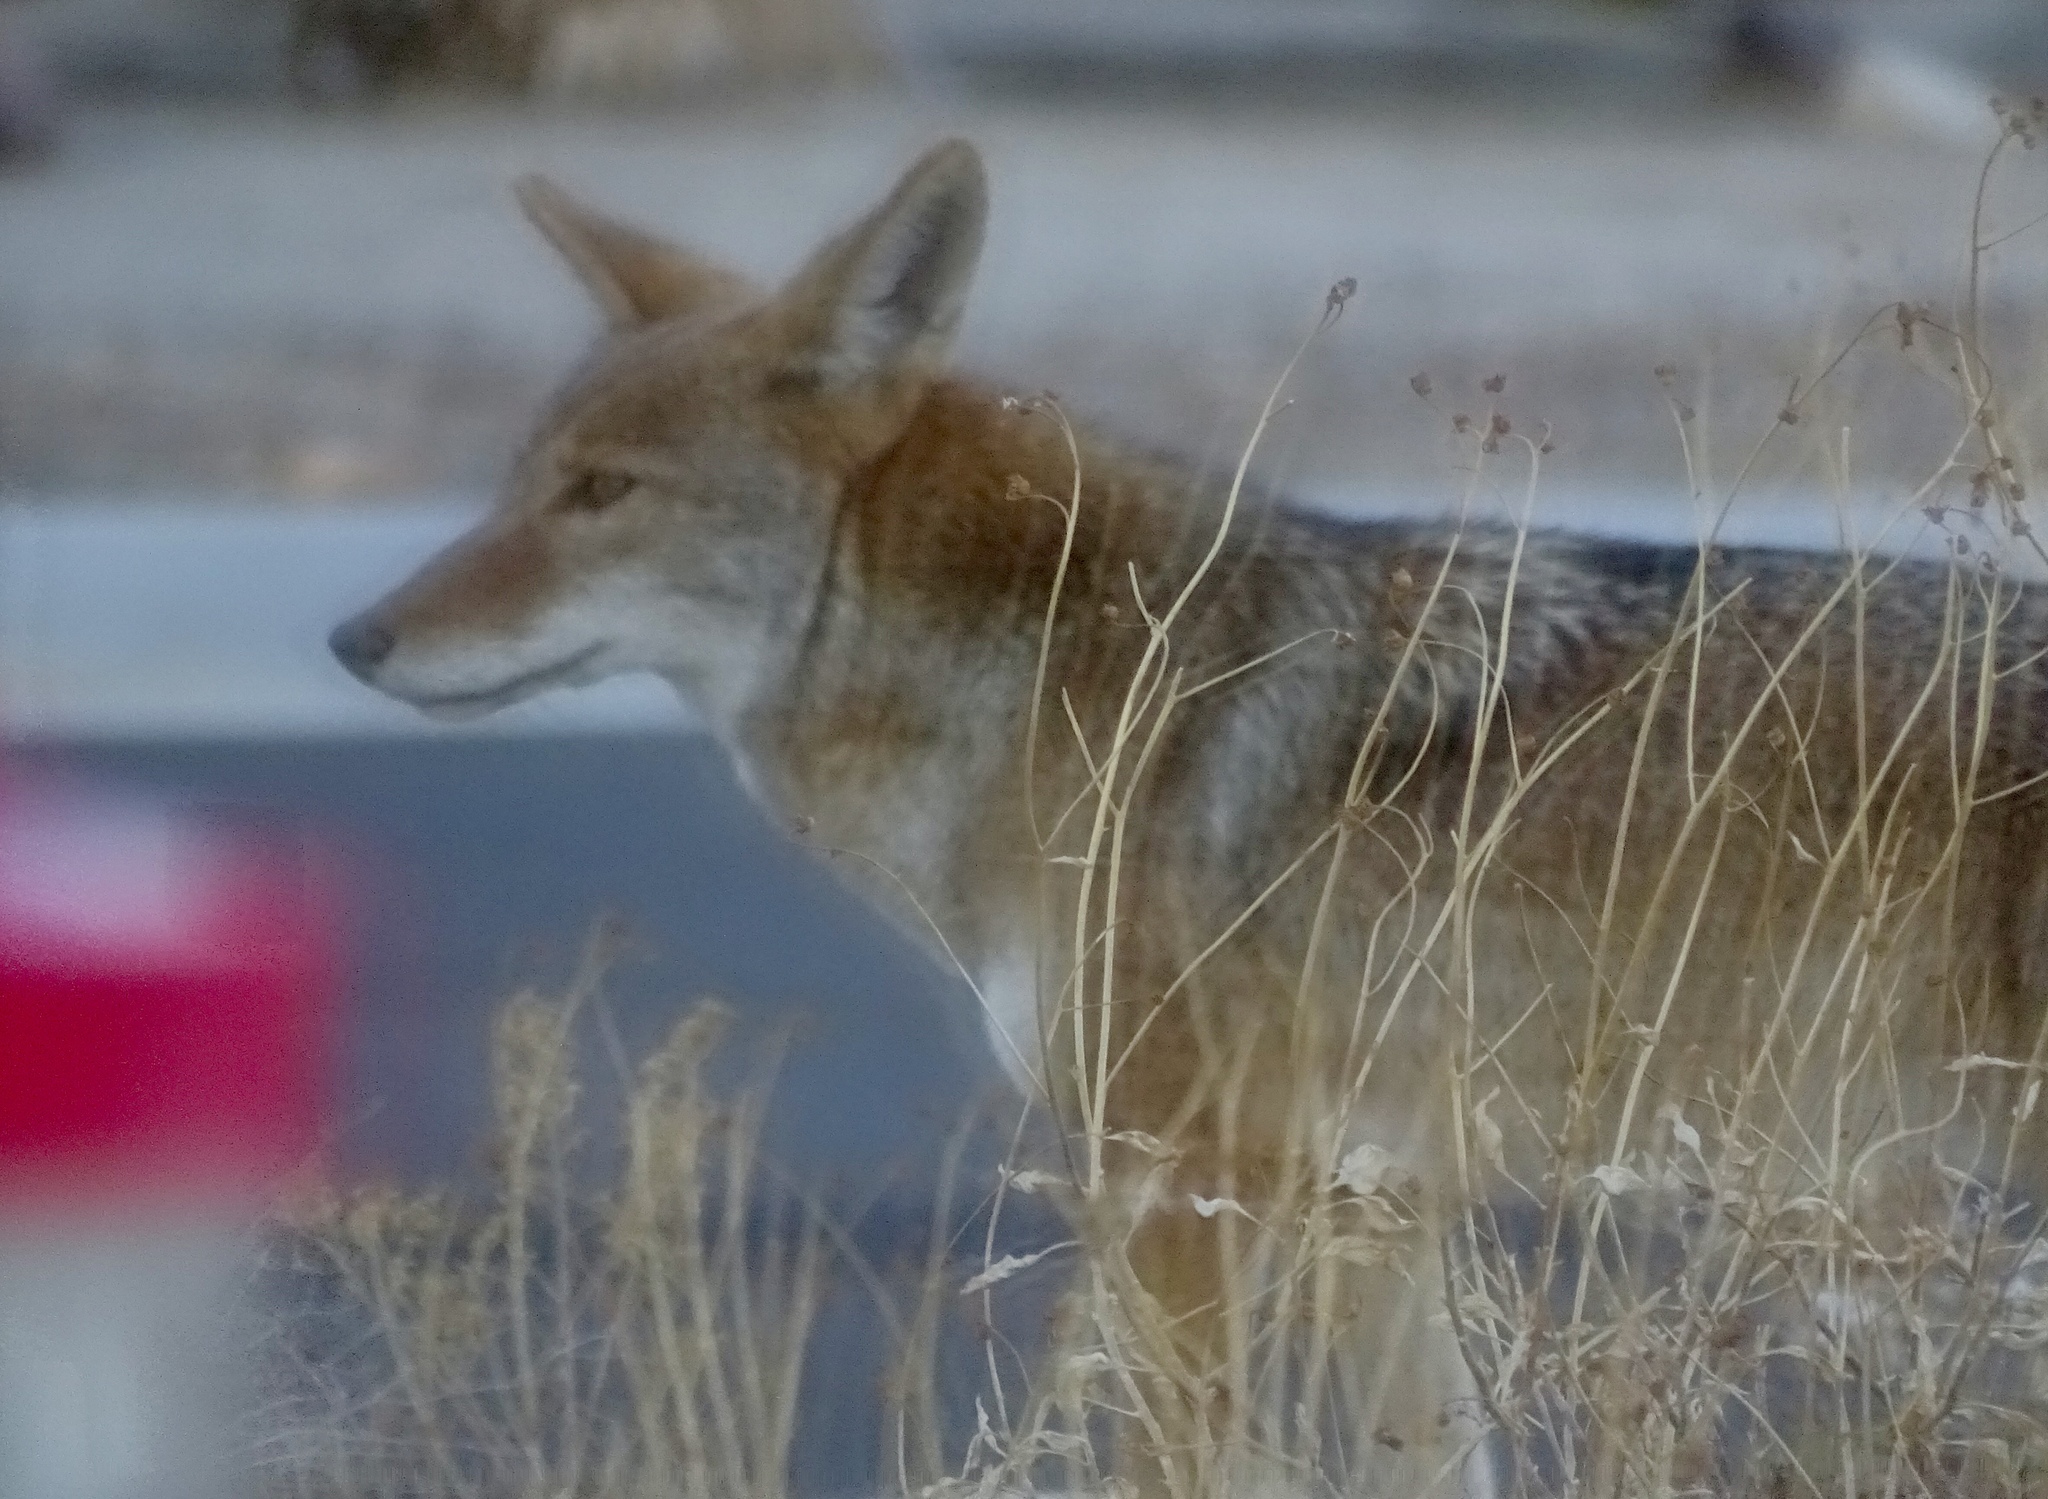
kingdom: Animalia
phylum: Chordata
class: Mammalia
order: Carnivora
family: Canidae
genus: Canis
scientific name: Canis latrans
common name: Coyote
